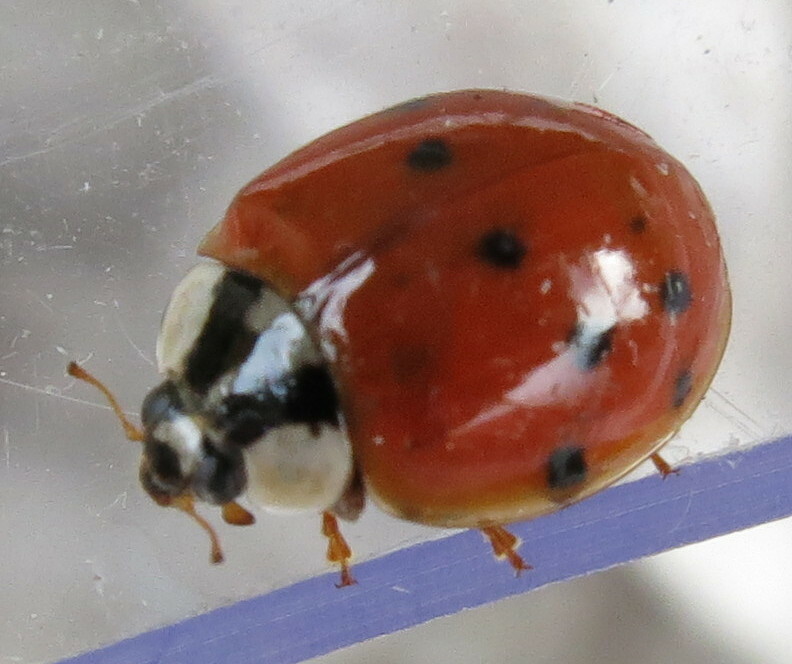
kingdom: Animalia
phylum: Arthropoda
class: Insecta
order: Coleoptera
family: Coccinellidae
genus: Harmonia
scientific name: Harmonia axyridis
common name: Harlequin ladybird
